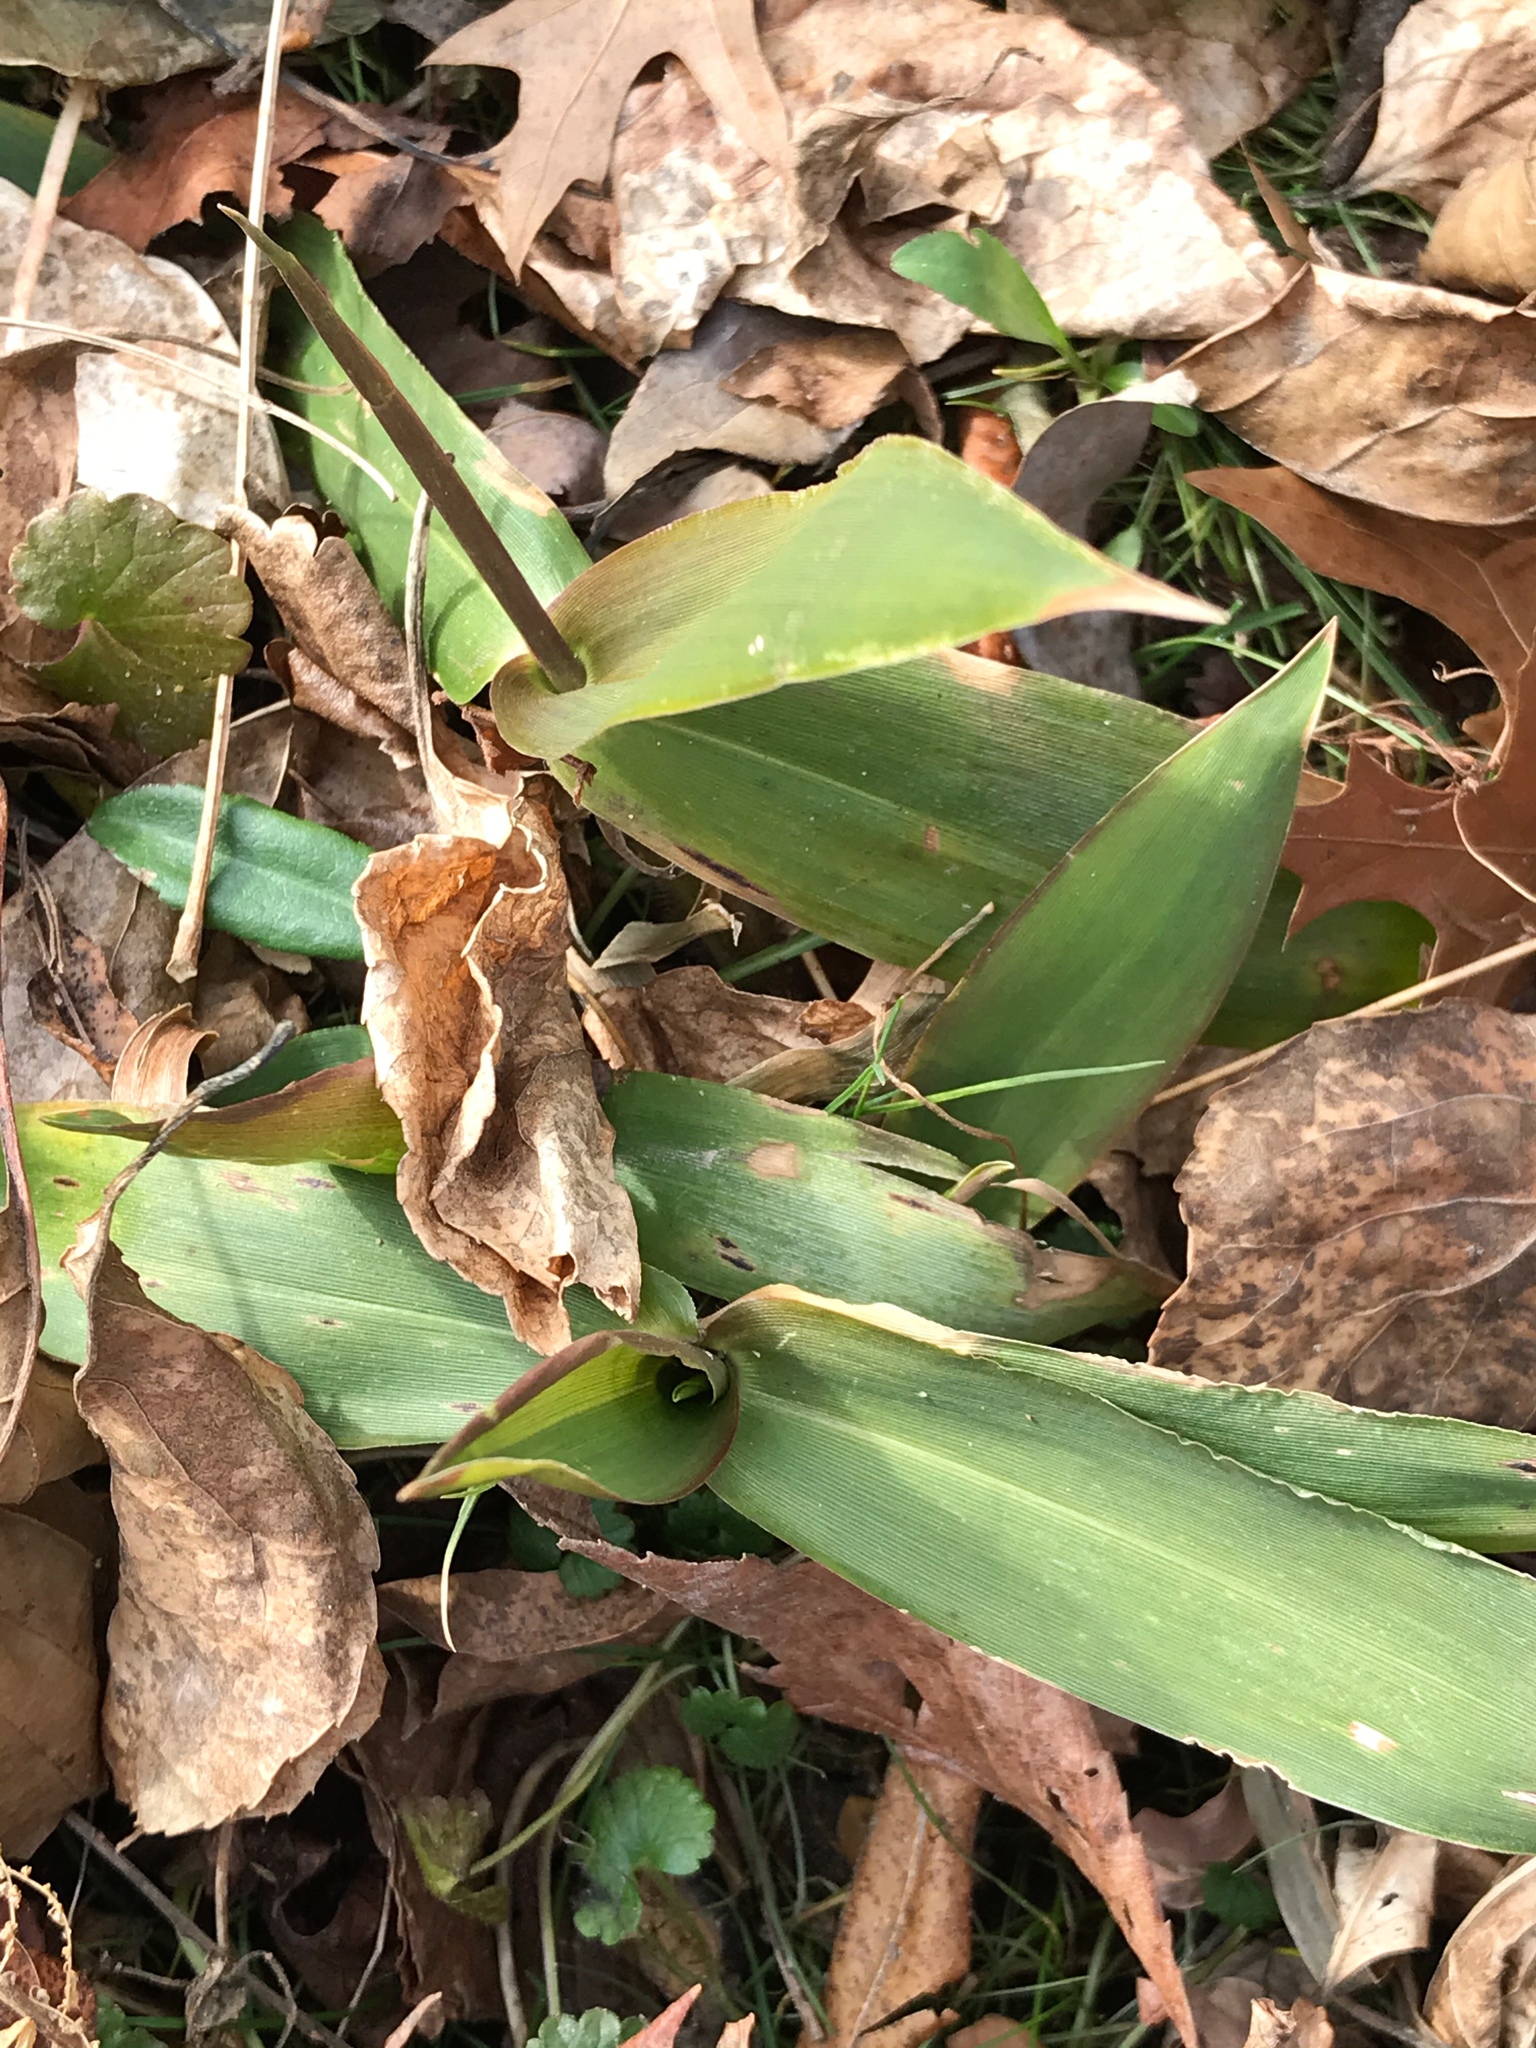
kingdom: Plantae
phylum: Tracheophyta
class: Liliopsida
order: Poales
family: Poaceae
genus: Dichanthelium
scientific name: Dichanthelium clandestinum
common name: Deer-tongue grass
